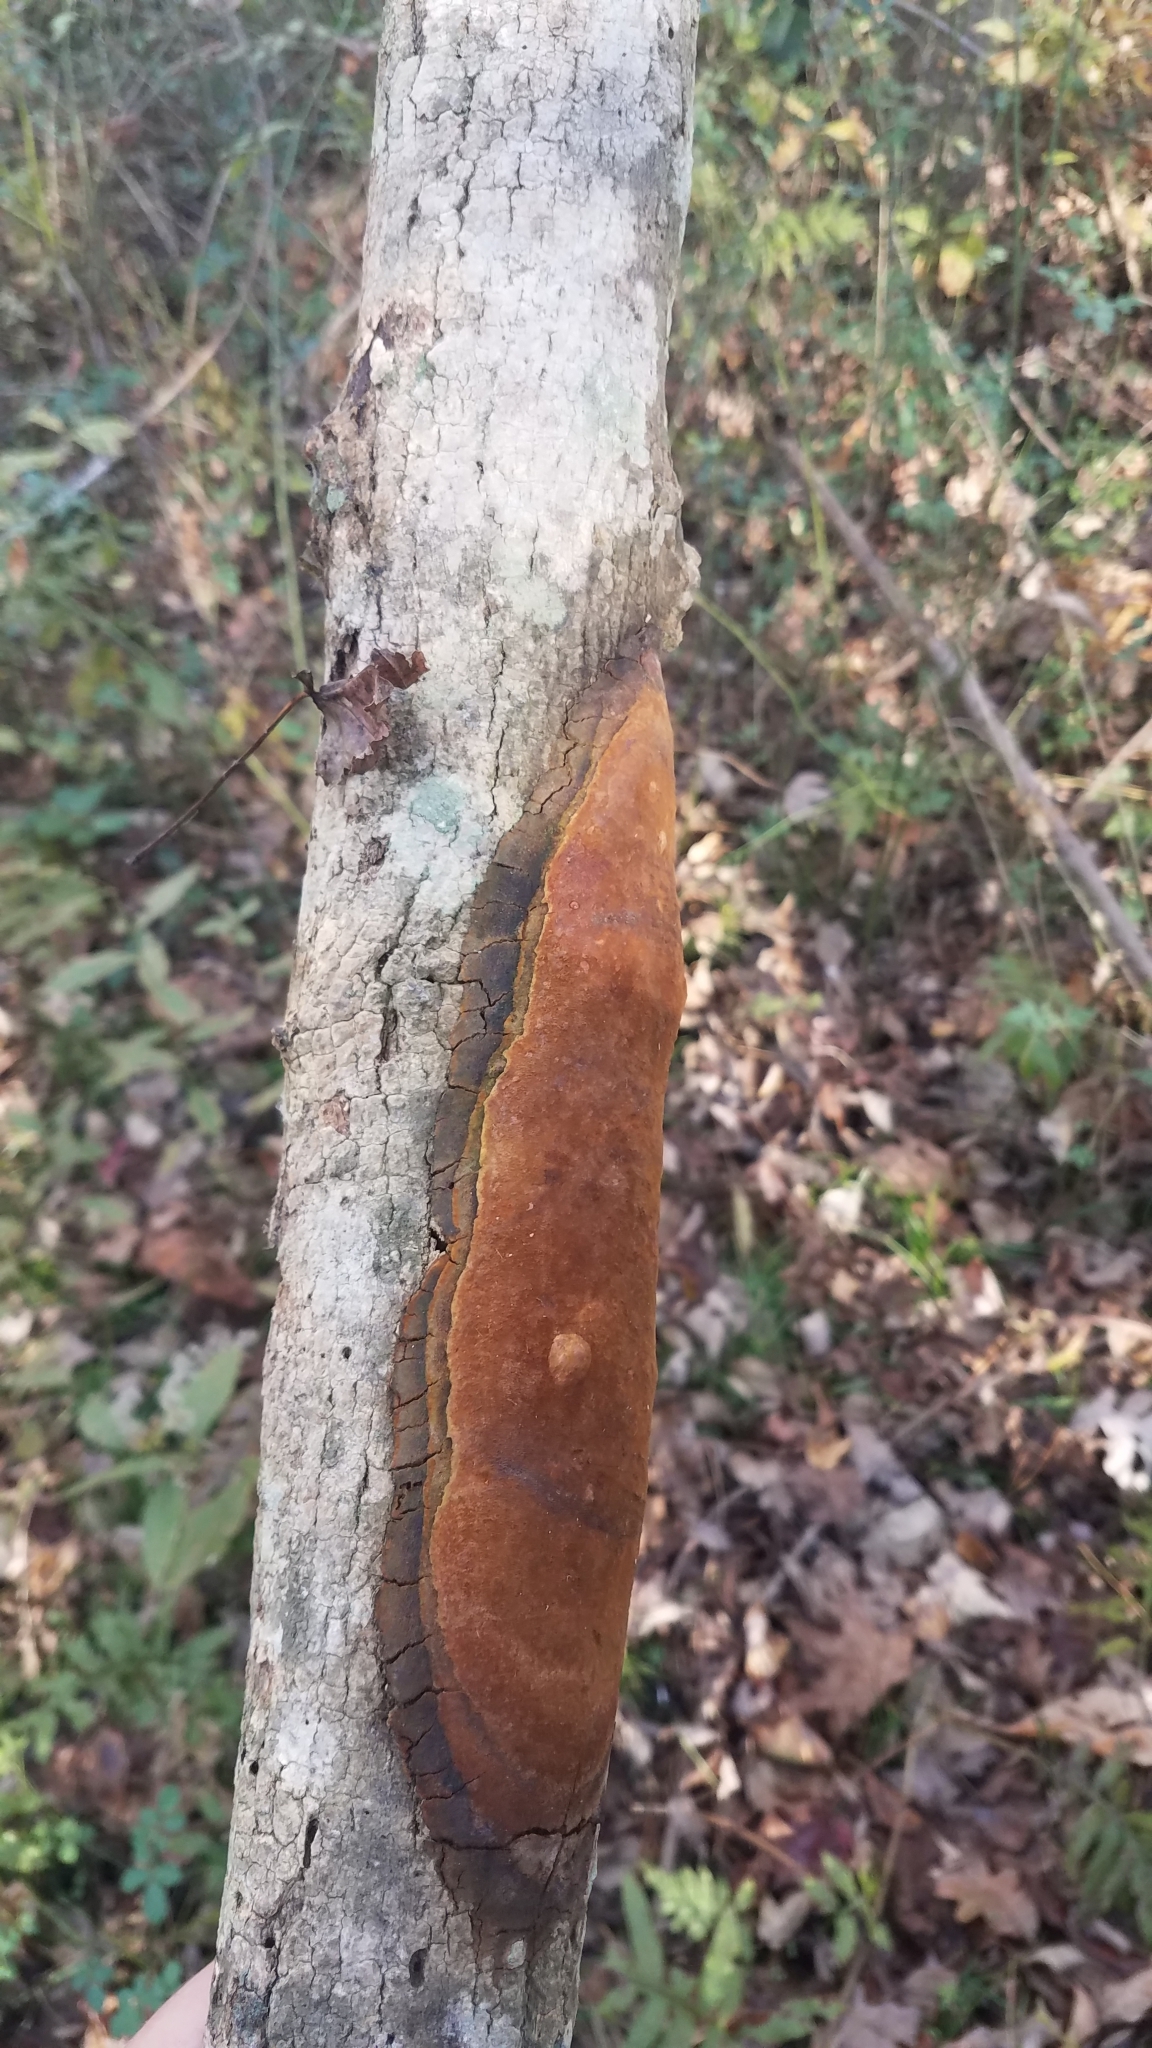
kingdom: Fungi
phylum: Basidiomycota
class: Agaricomycetes
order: Hymenochaetales
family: Hymenochaetaceae
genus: Fomitiporia
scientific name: Fomitiporia punctata
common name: Elbowpatch crust
